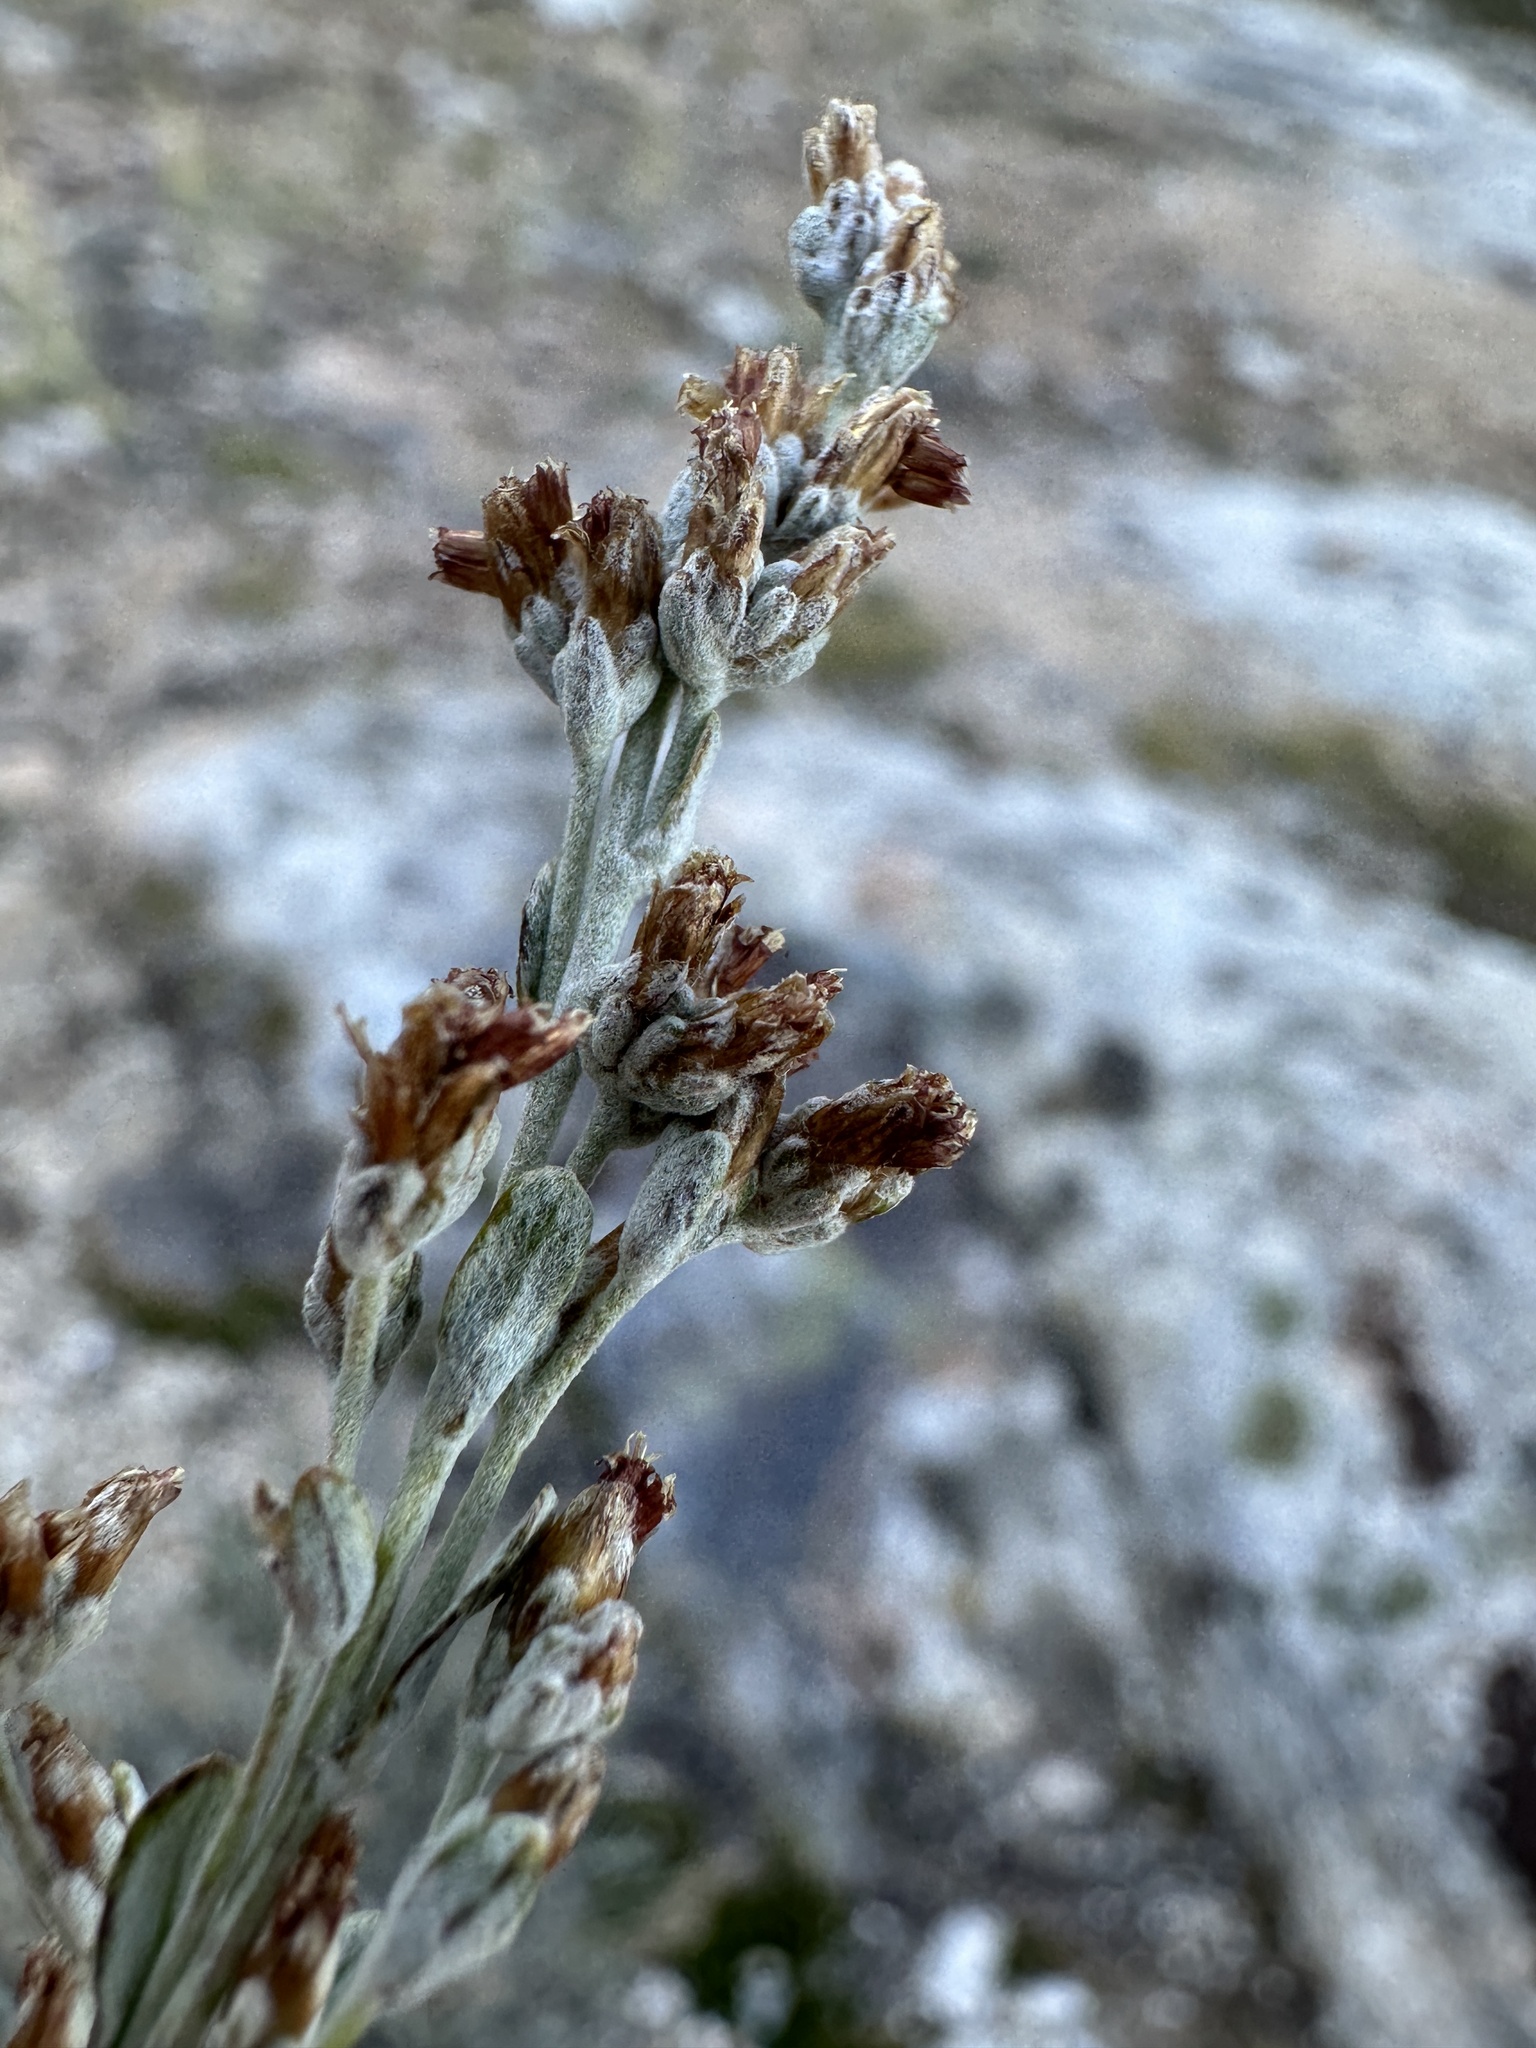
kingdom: Plantae
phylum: Tracheophyta
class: Magnoliopsida
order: Asterales
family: Asteraceae
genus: Artemisia
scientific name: Artemisia arbuscula
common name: Sagebrush
